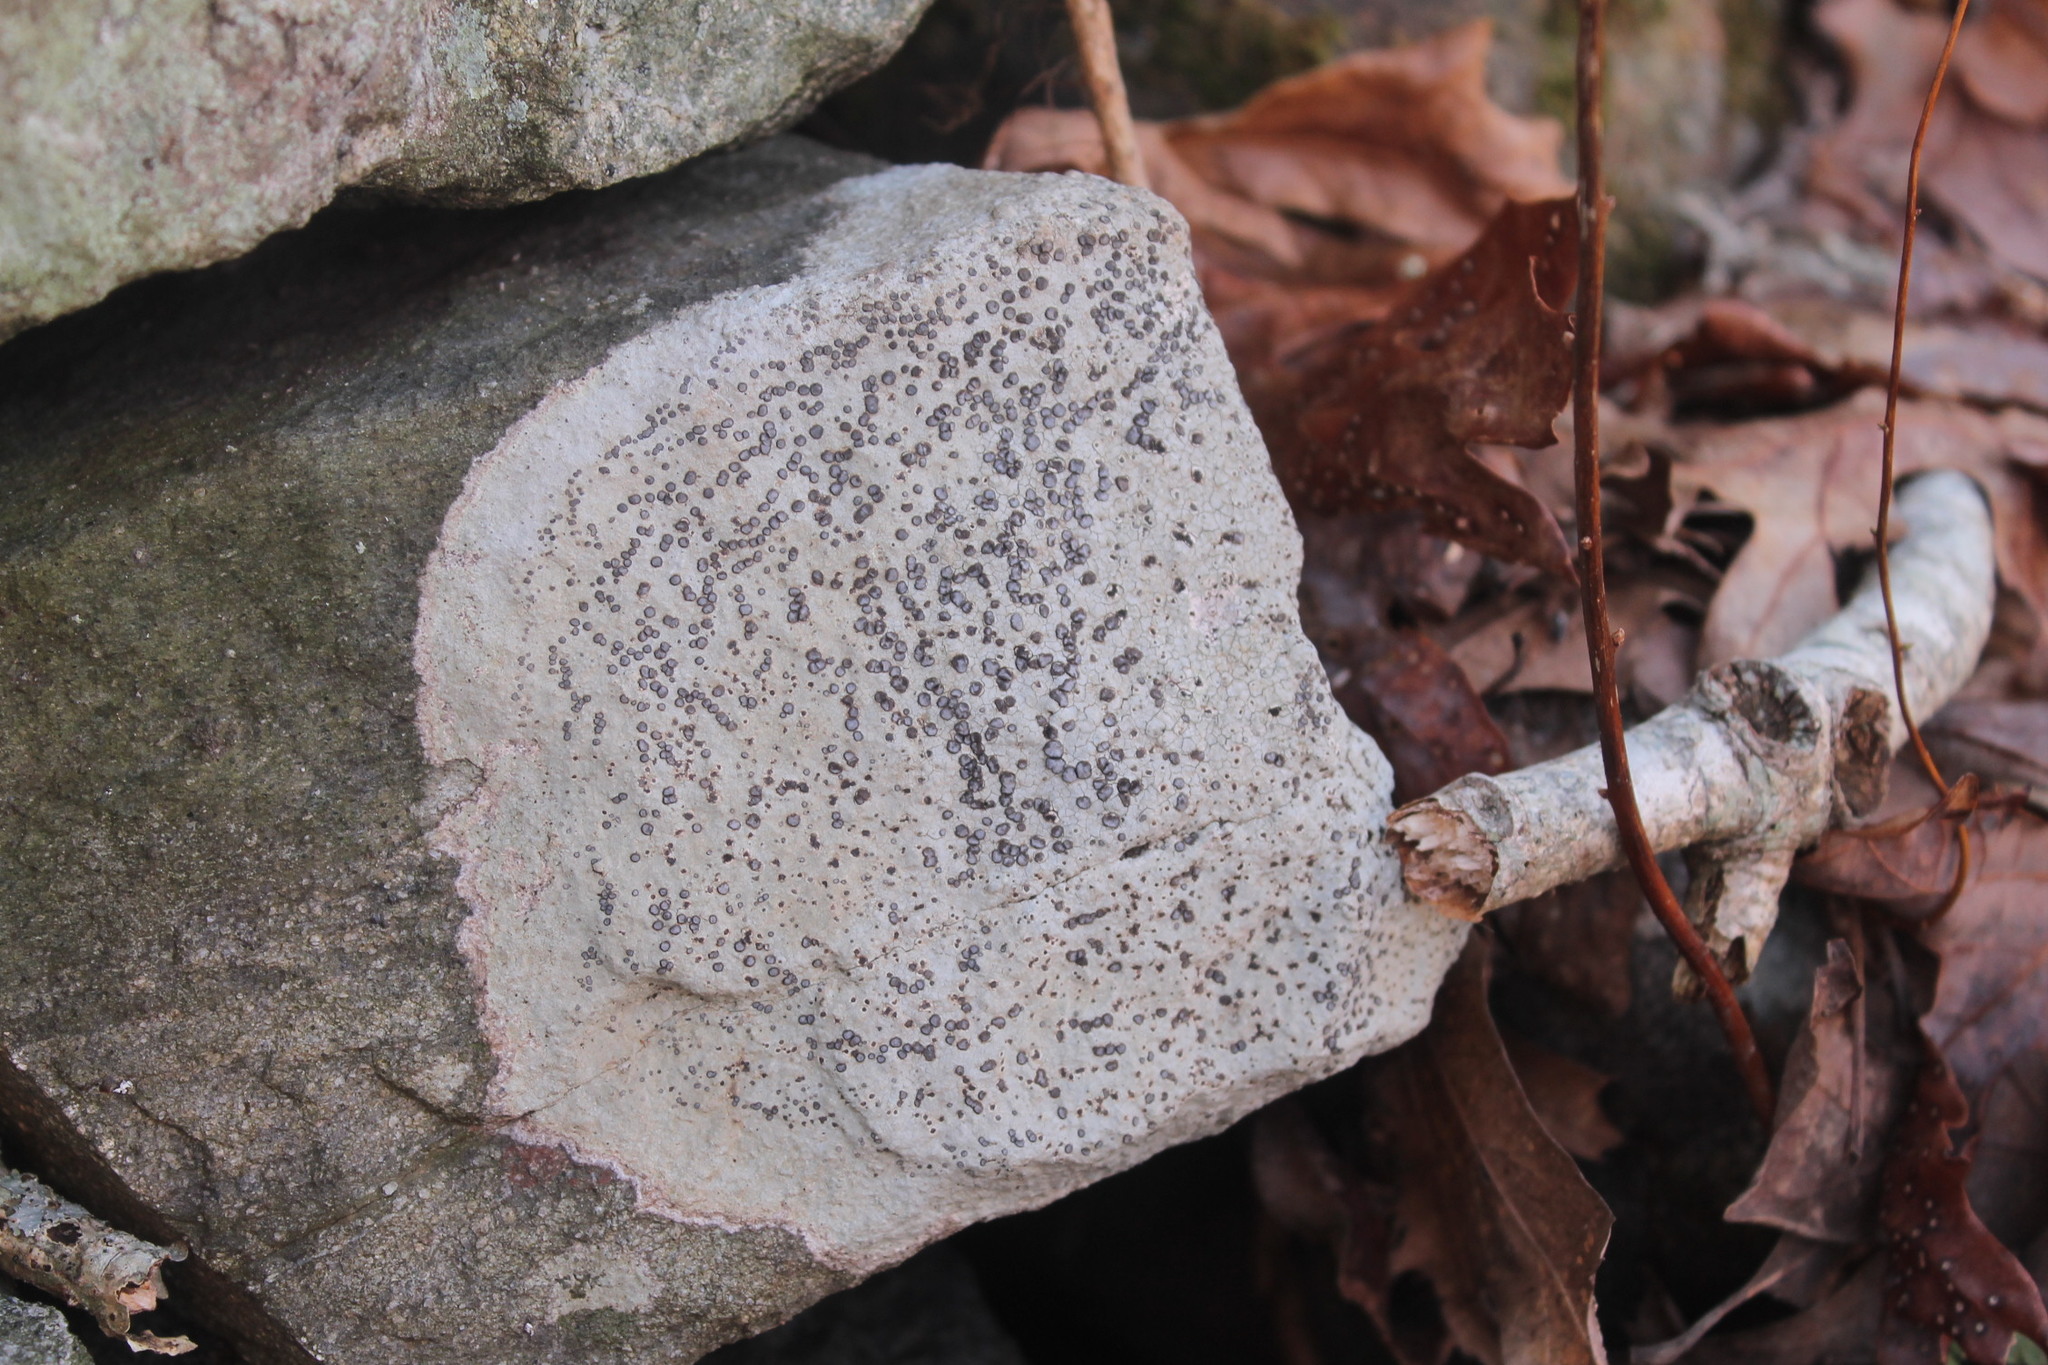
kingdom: Fungi
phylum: Ascomycota
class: Lecanoromycetes
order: Lecideales
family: Lecideaceae
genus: Porpidia
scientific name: Porpidia albocaerulescens
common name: Smokey-eyed boulder lichen
